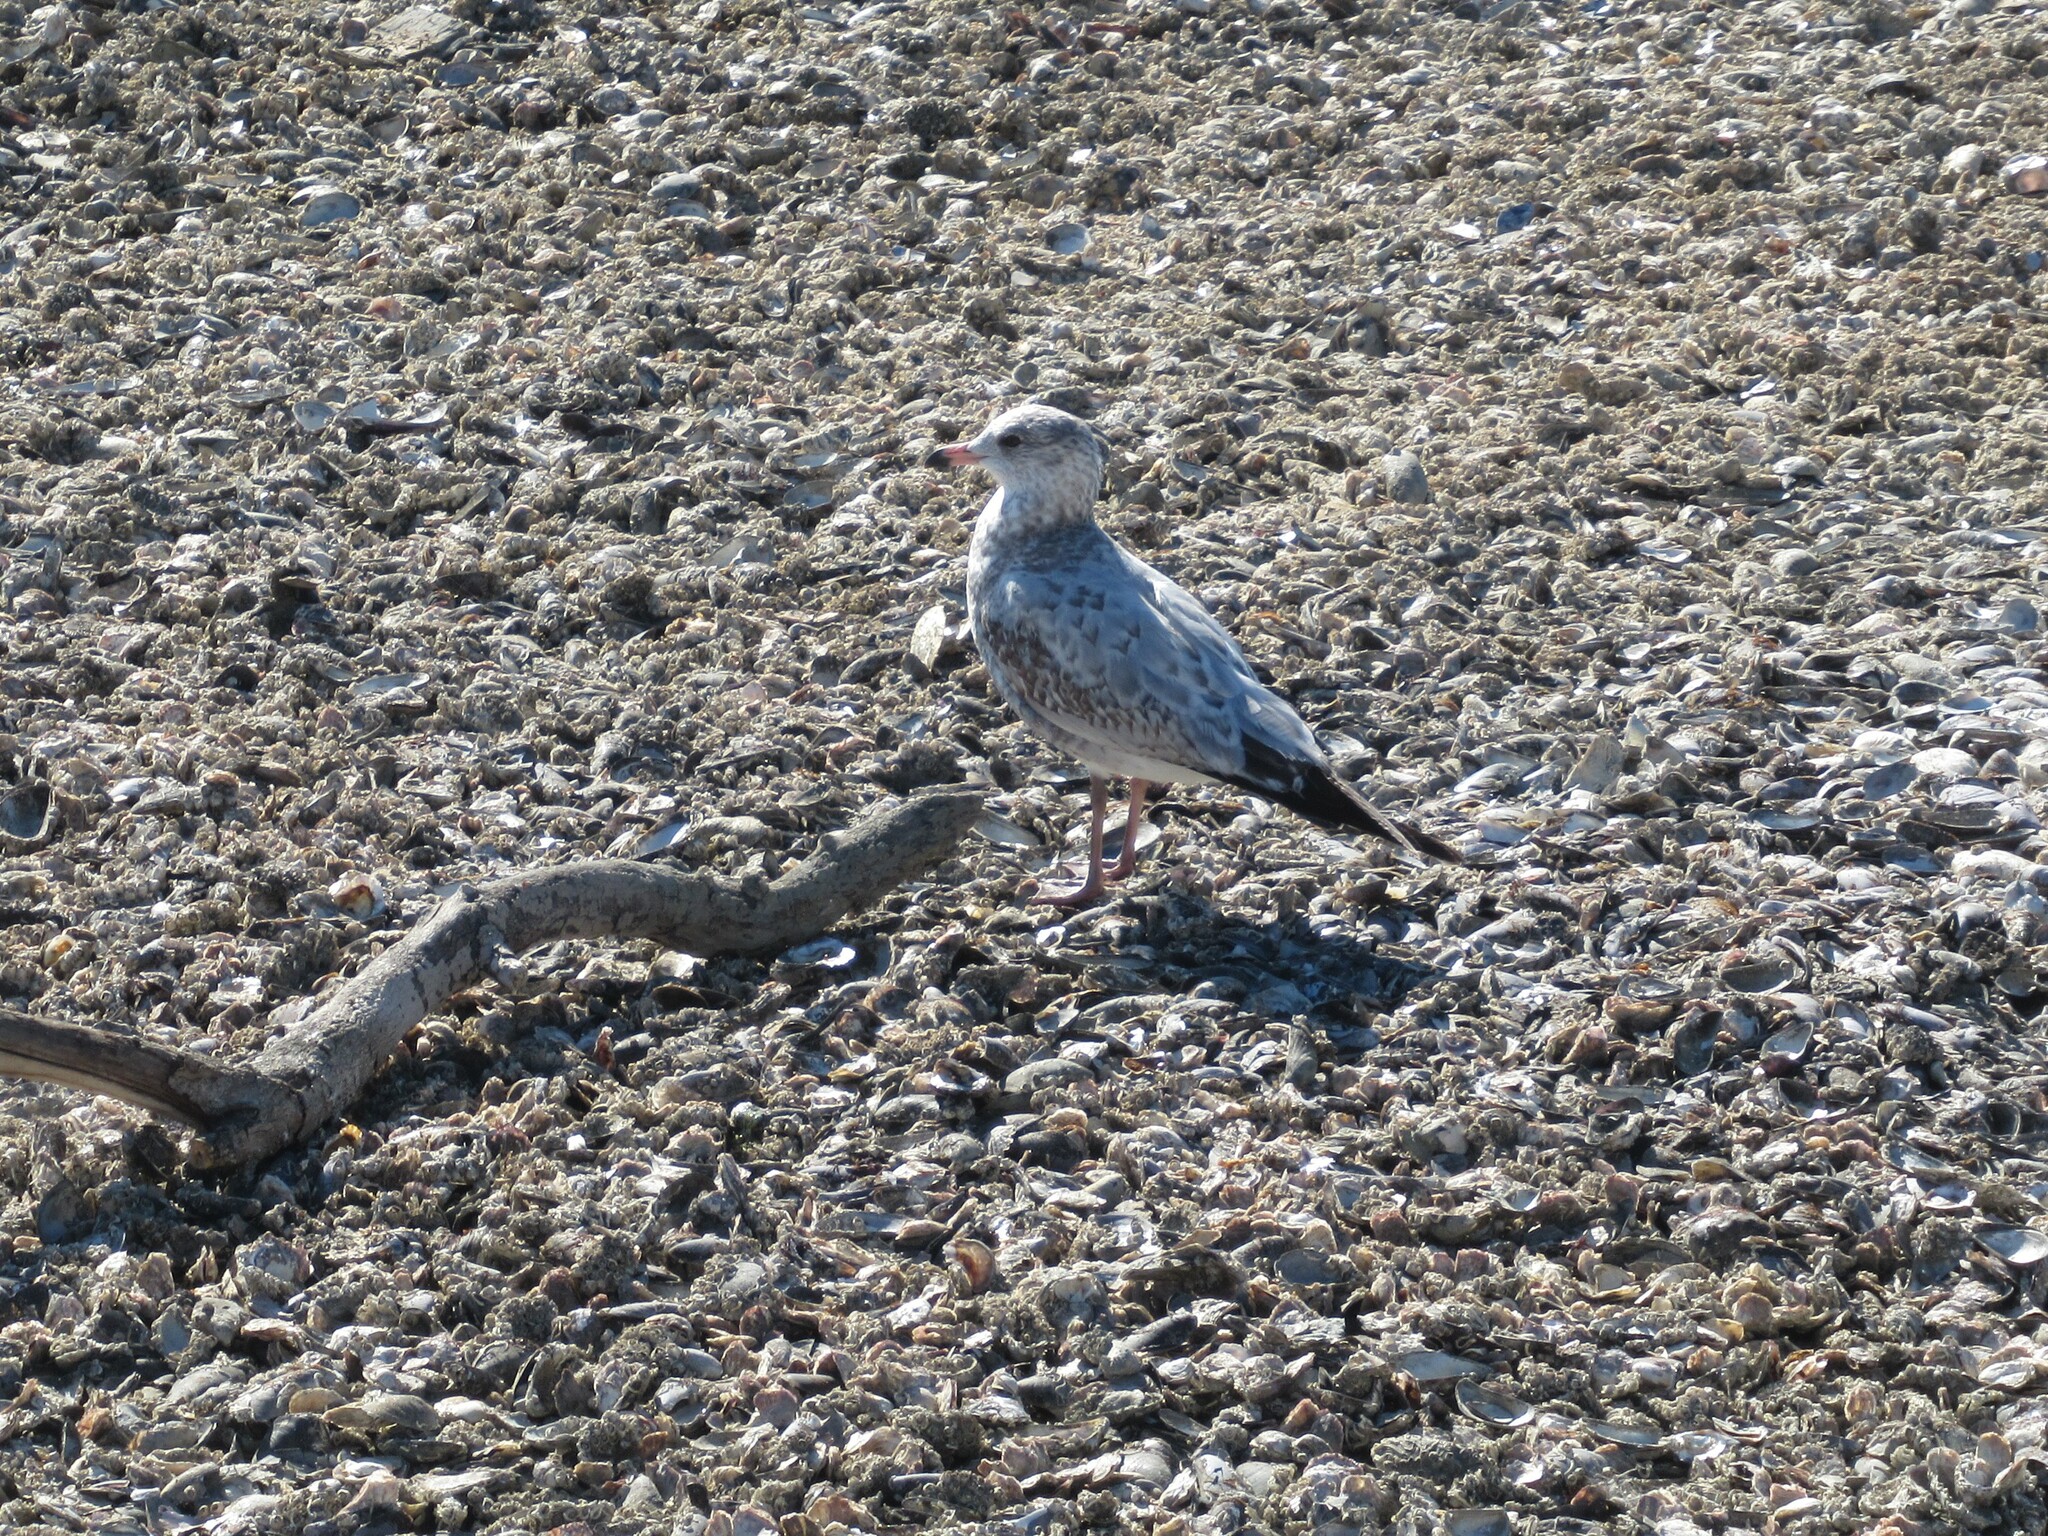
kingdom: Animalia
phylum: Chordata
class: Aves
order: Charadriiformes
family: Laridae
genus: Larus
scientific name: Larus delawarensis
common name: Ring-billed gull
